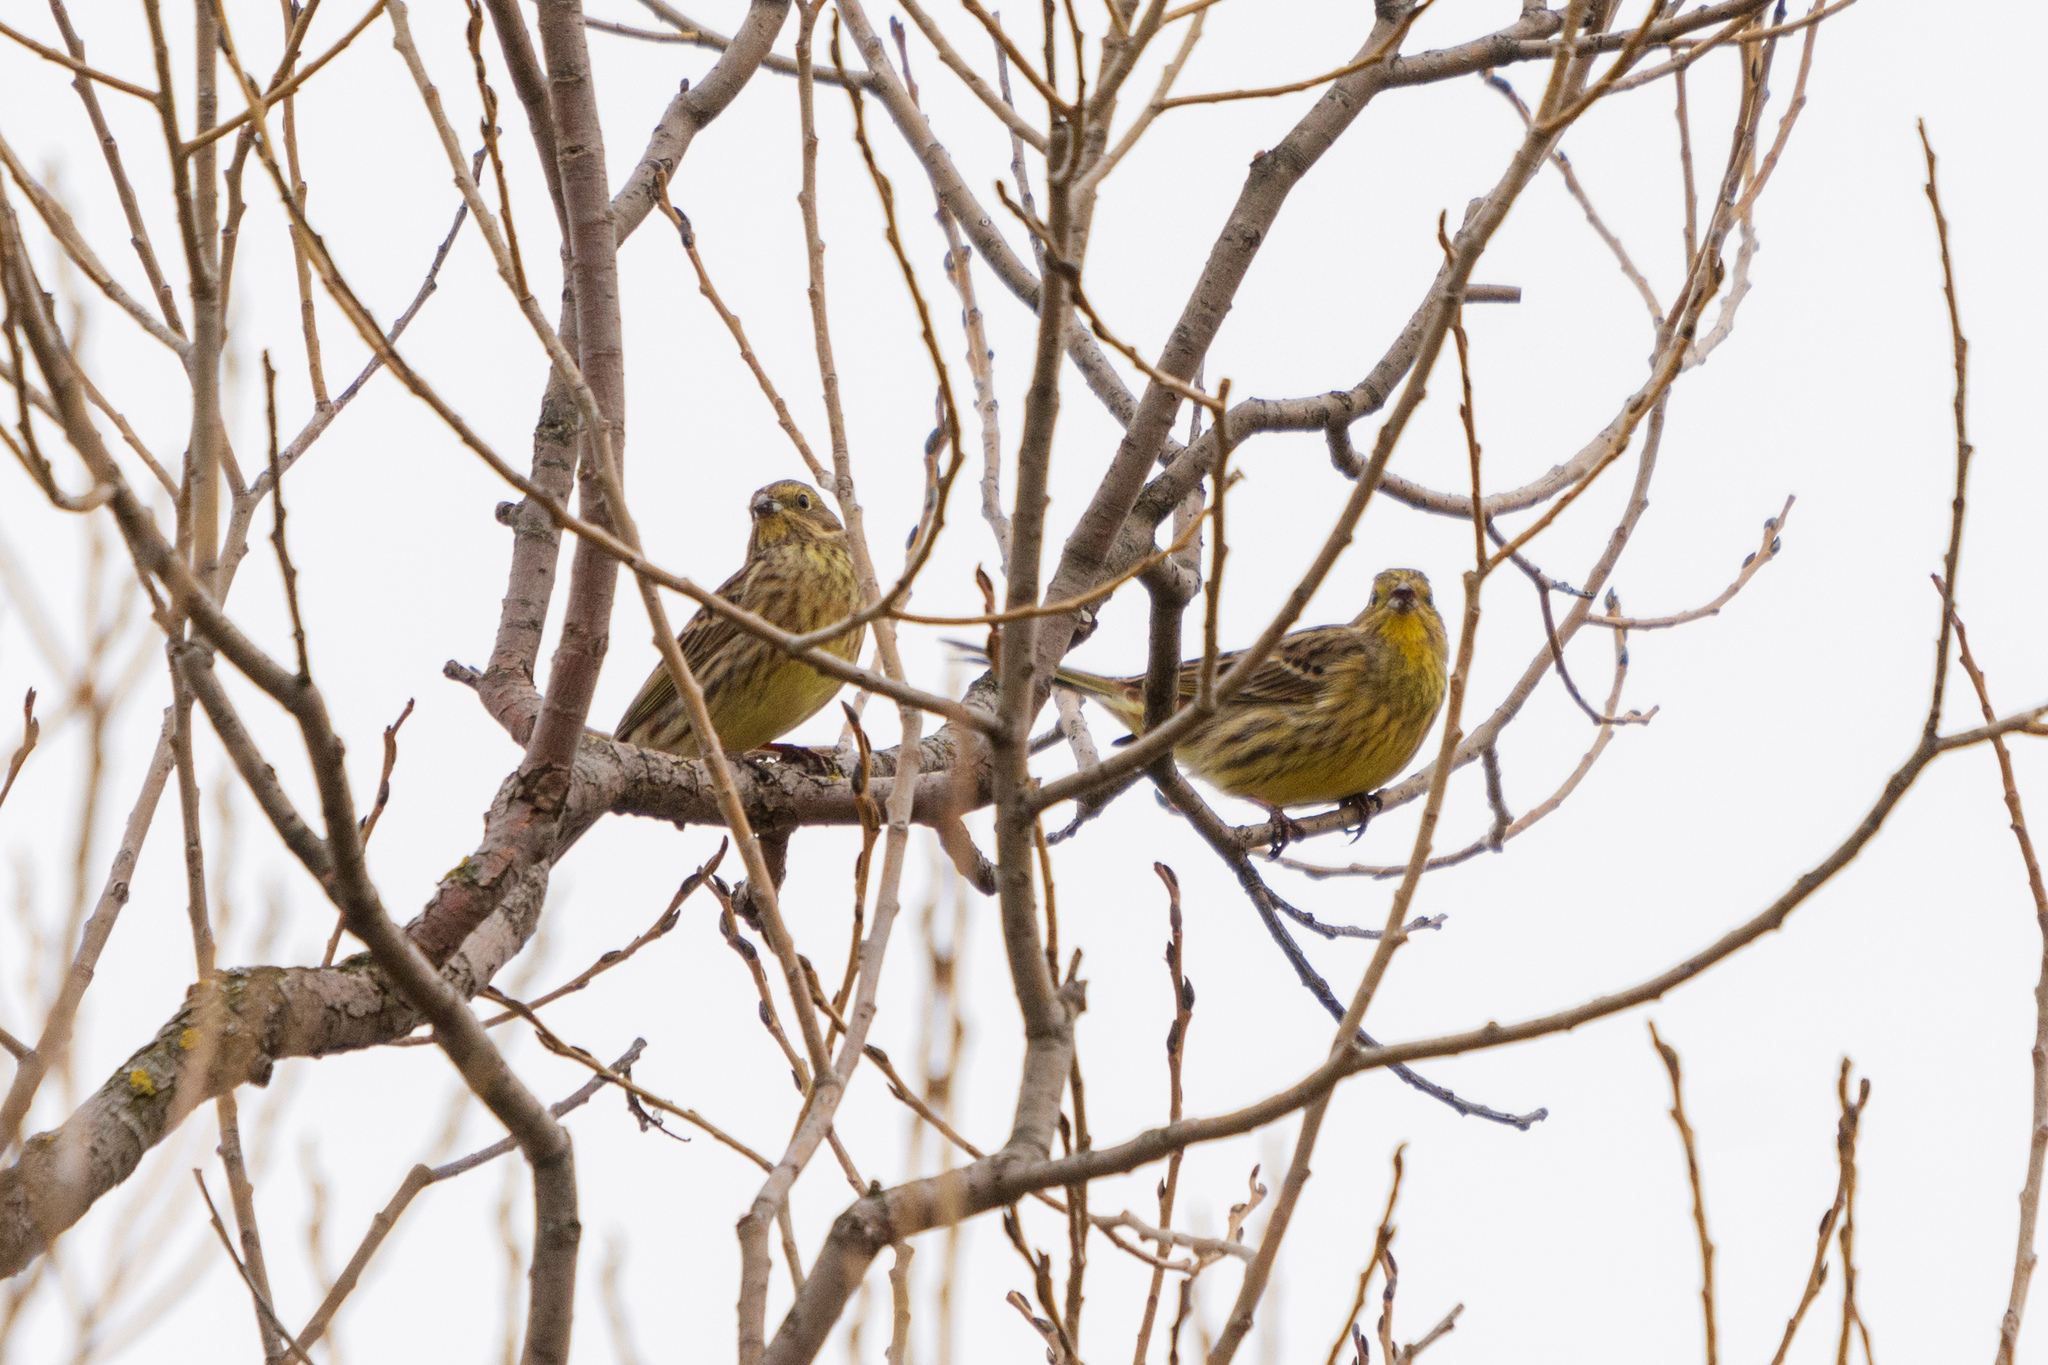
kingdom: Animalia
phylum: Chordata
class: Aves
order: Passeriformes
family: Emberizidae
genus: Emberiza
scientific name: Emberiza citrinella
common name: Yellowhammer
